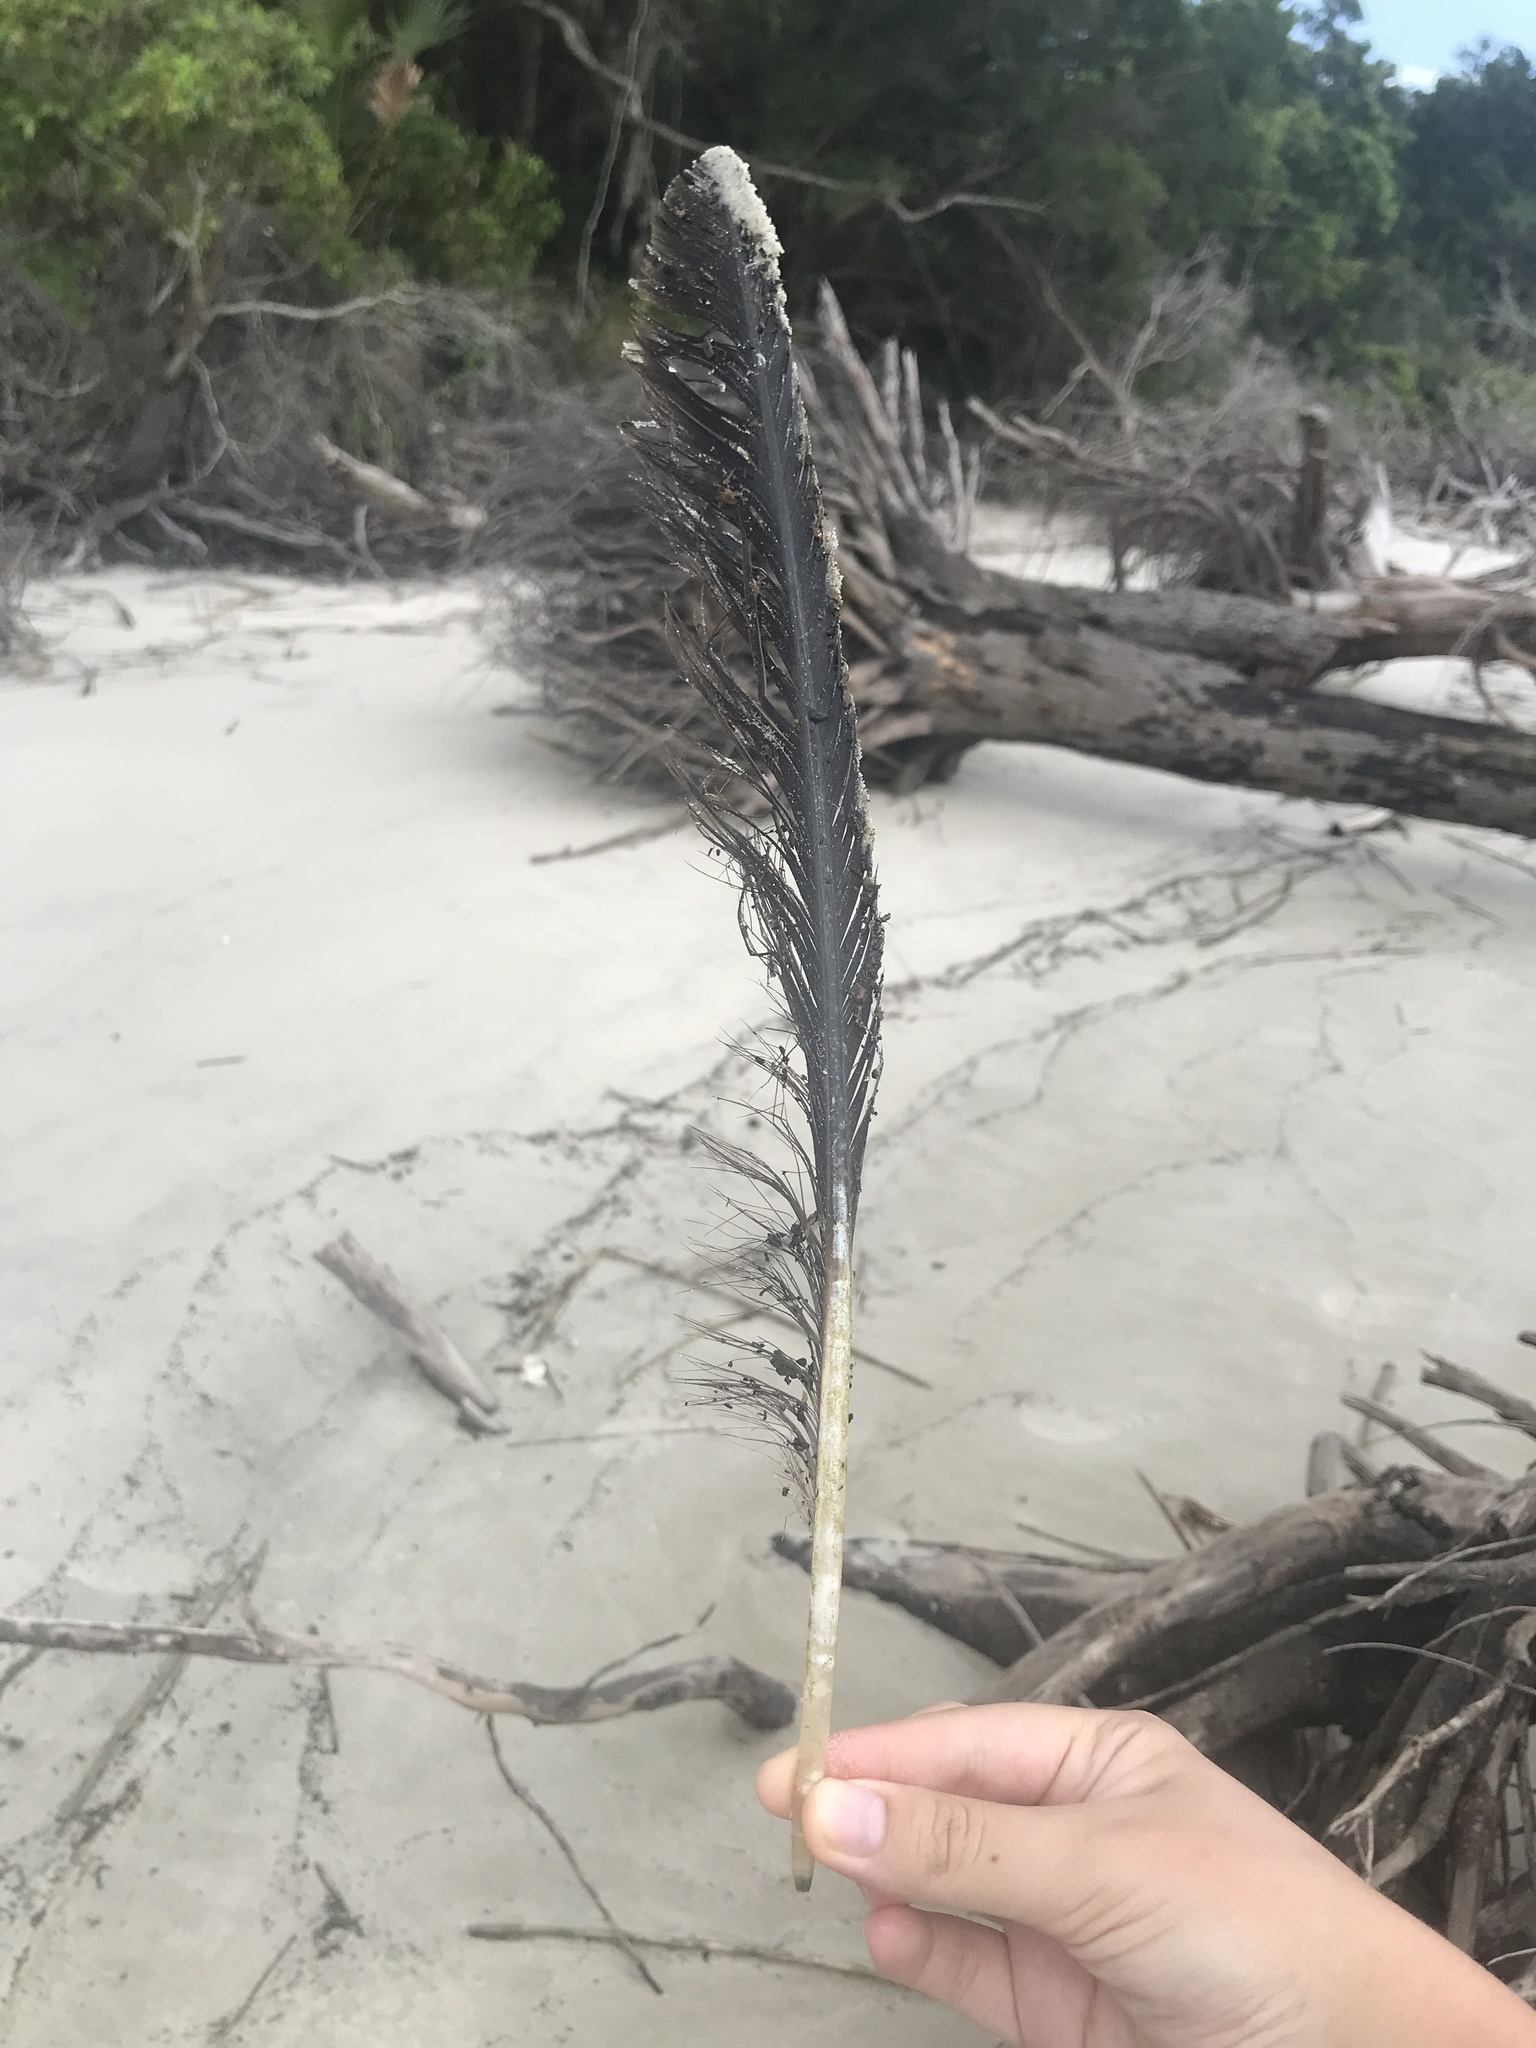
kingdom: Animalia
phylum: Chordata
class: Aves
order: Pelecaniformes
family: Ardeidae
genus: Ardea
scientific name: Ardea herodias
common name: Great blue heron
